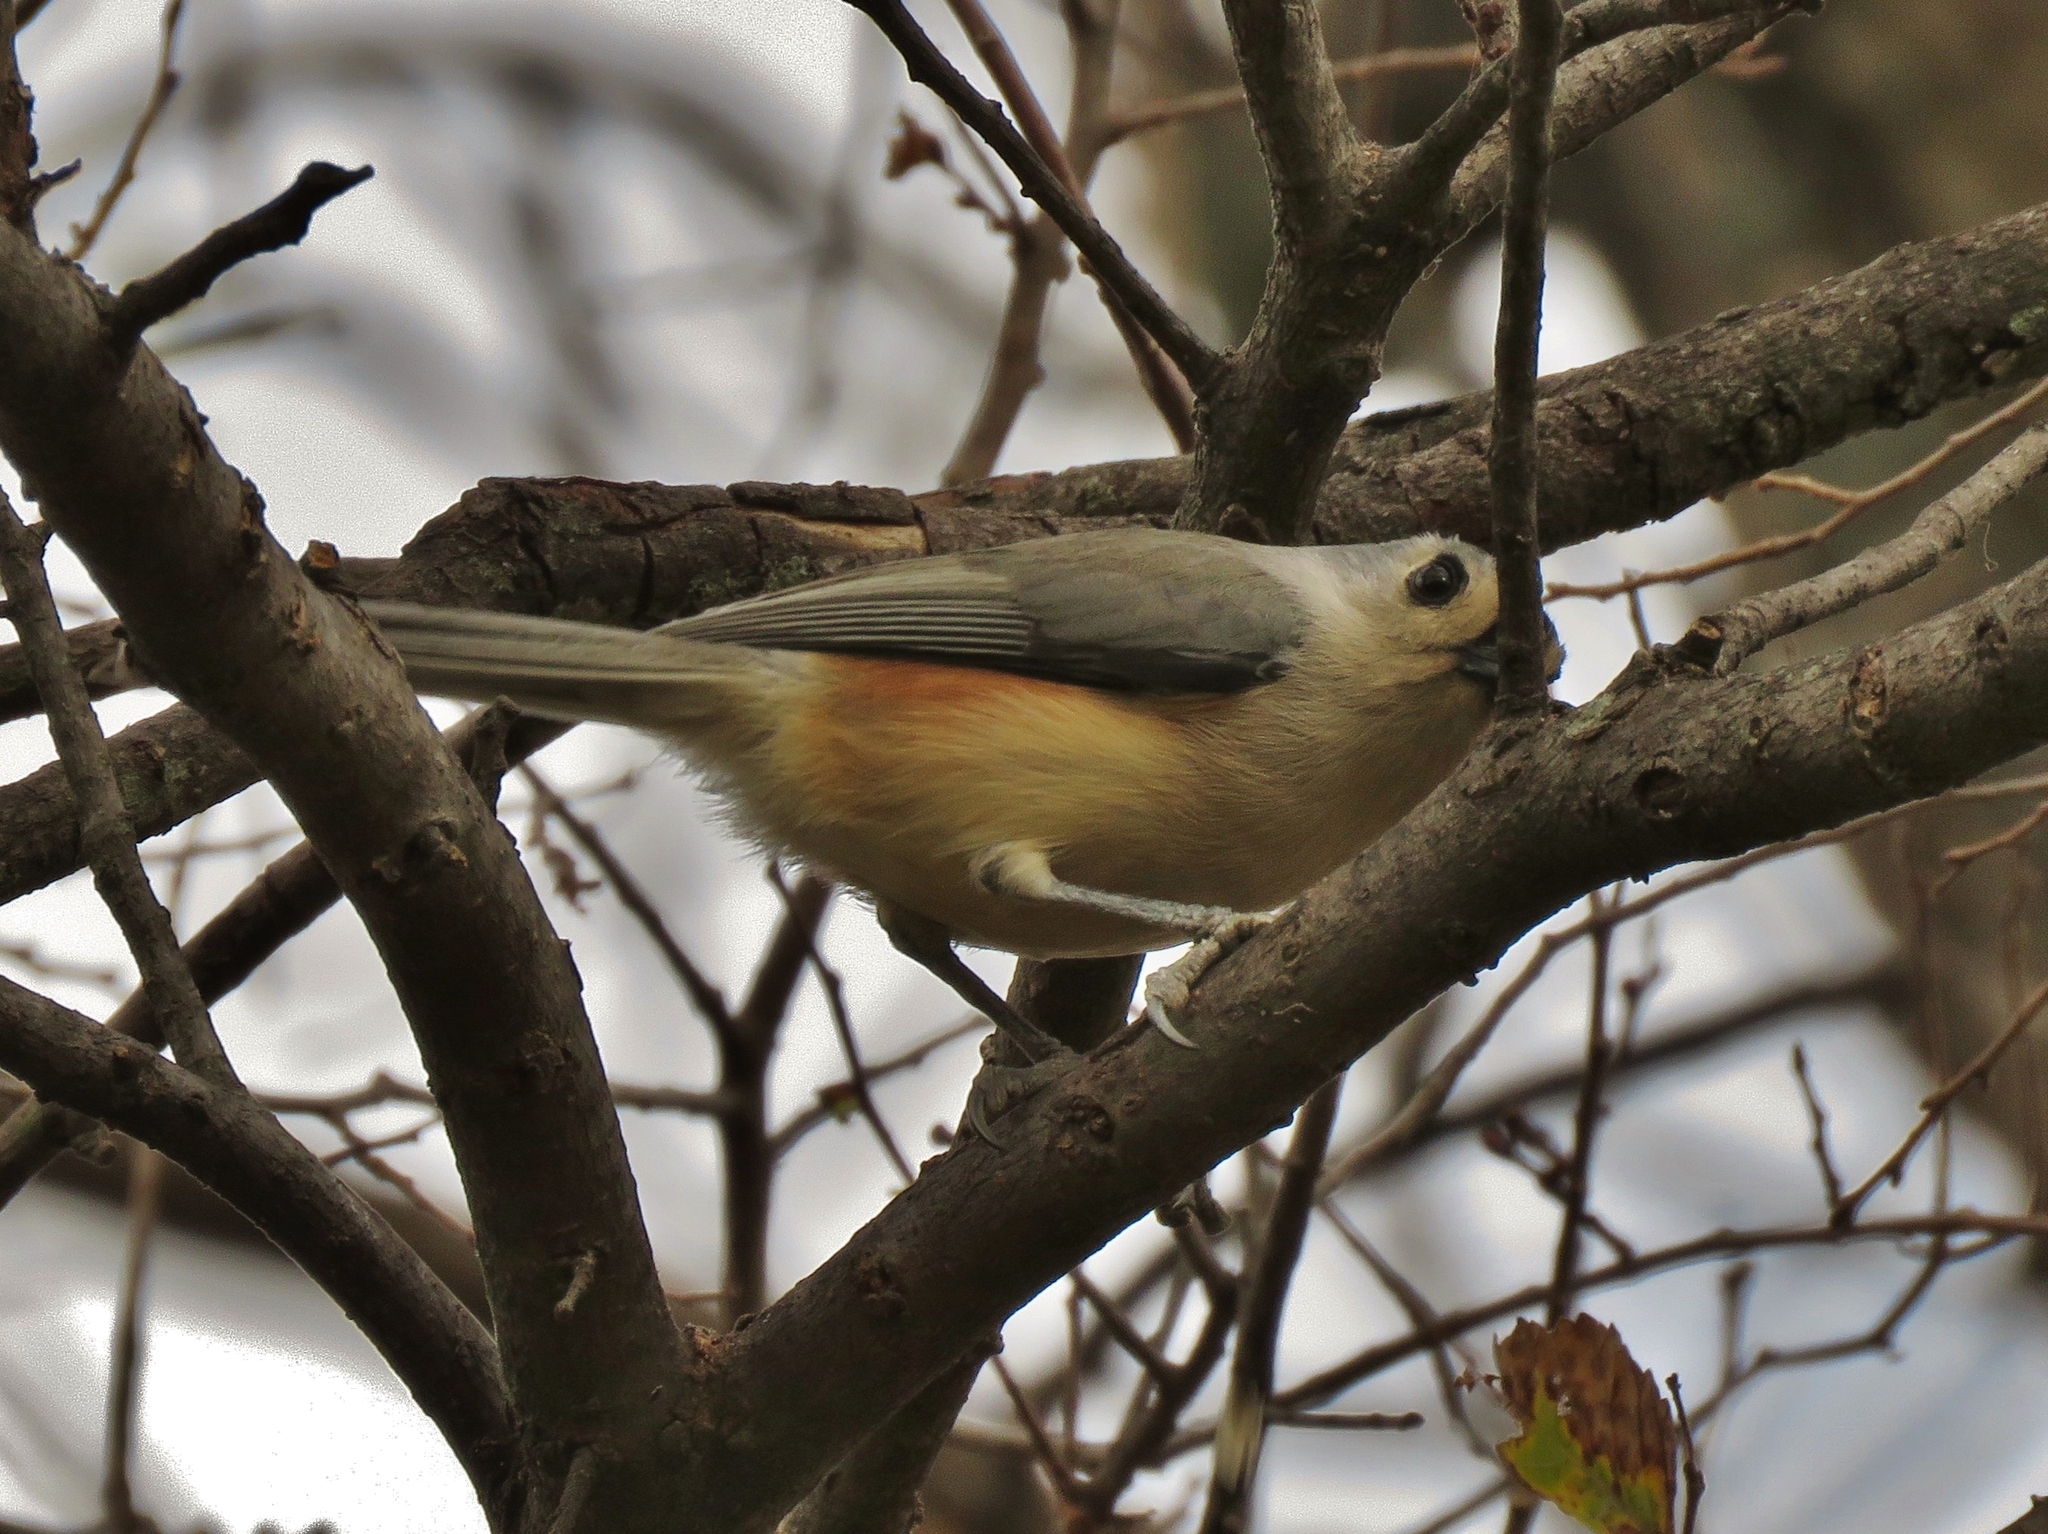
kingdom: Animalia
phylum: Chordata
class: Aves
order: Passeriformes
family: Paridae
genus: Baeolophus
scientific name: Baeolophus bicolor
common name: Tufted titmouse
